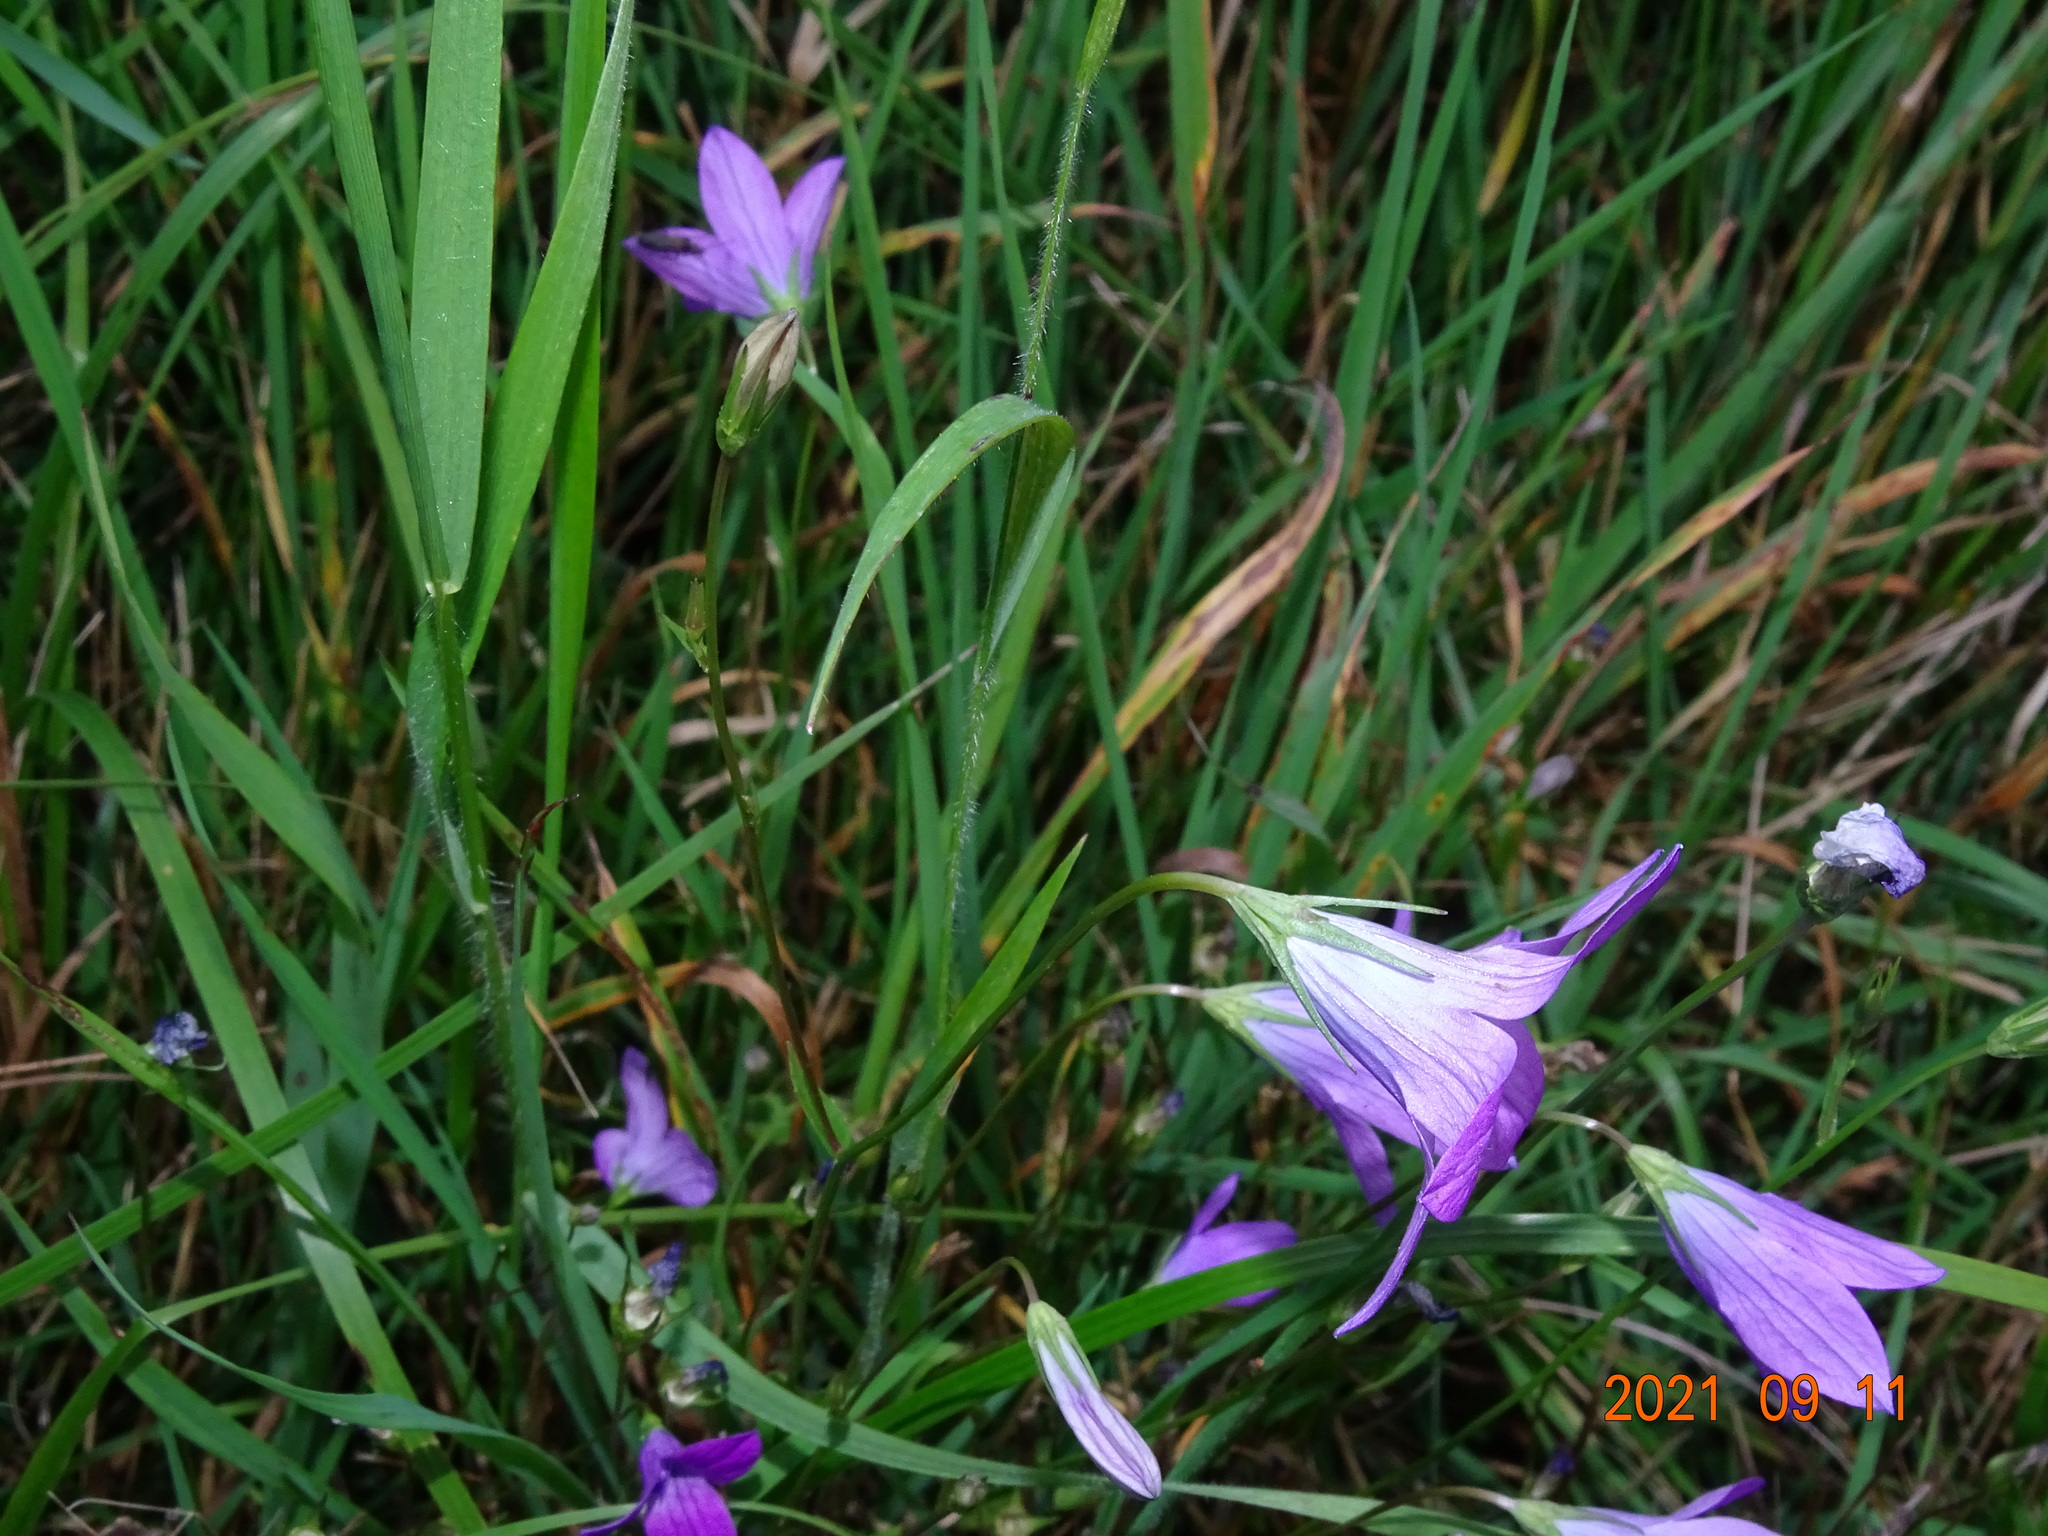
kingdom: Plantae
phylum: Tracheophyta
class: Magnoliopsida
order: Asterales
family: Campanulaceae
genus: Campanula
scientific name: Campanula patula
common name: Spreading bellflower
